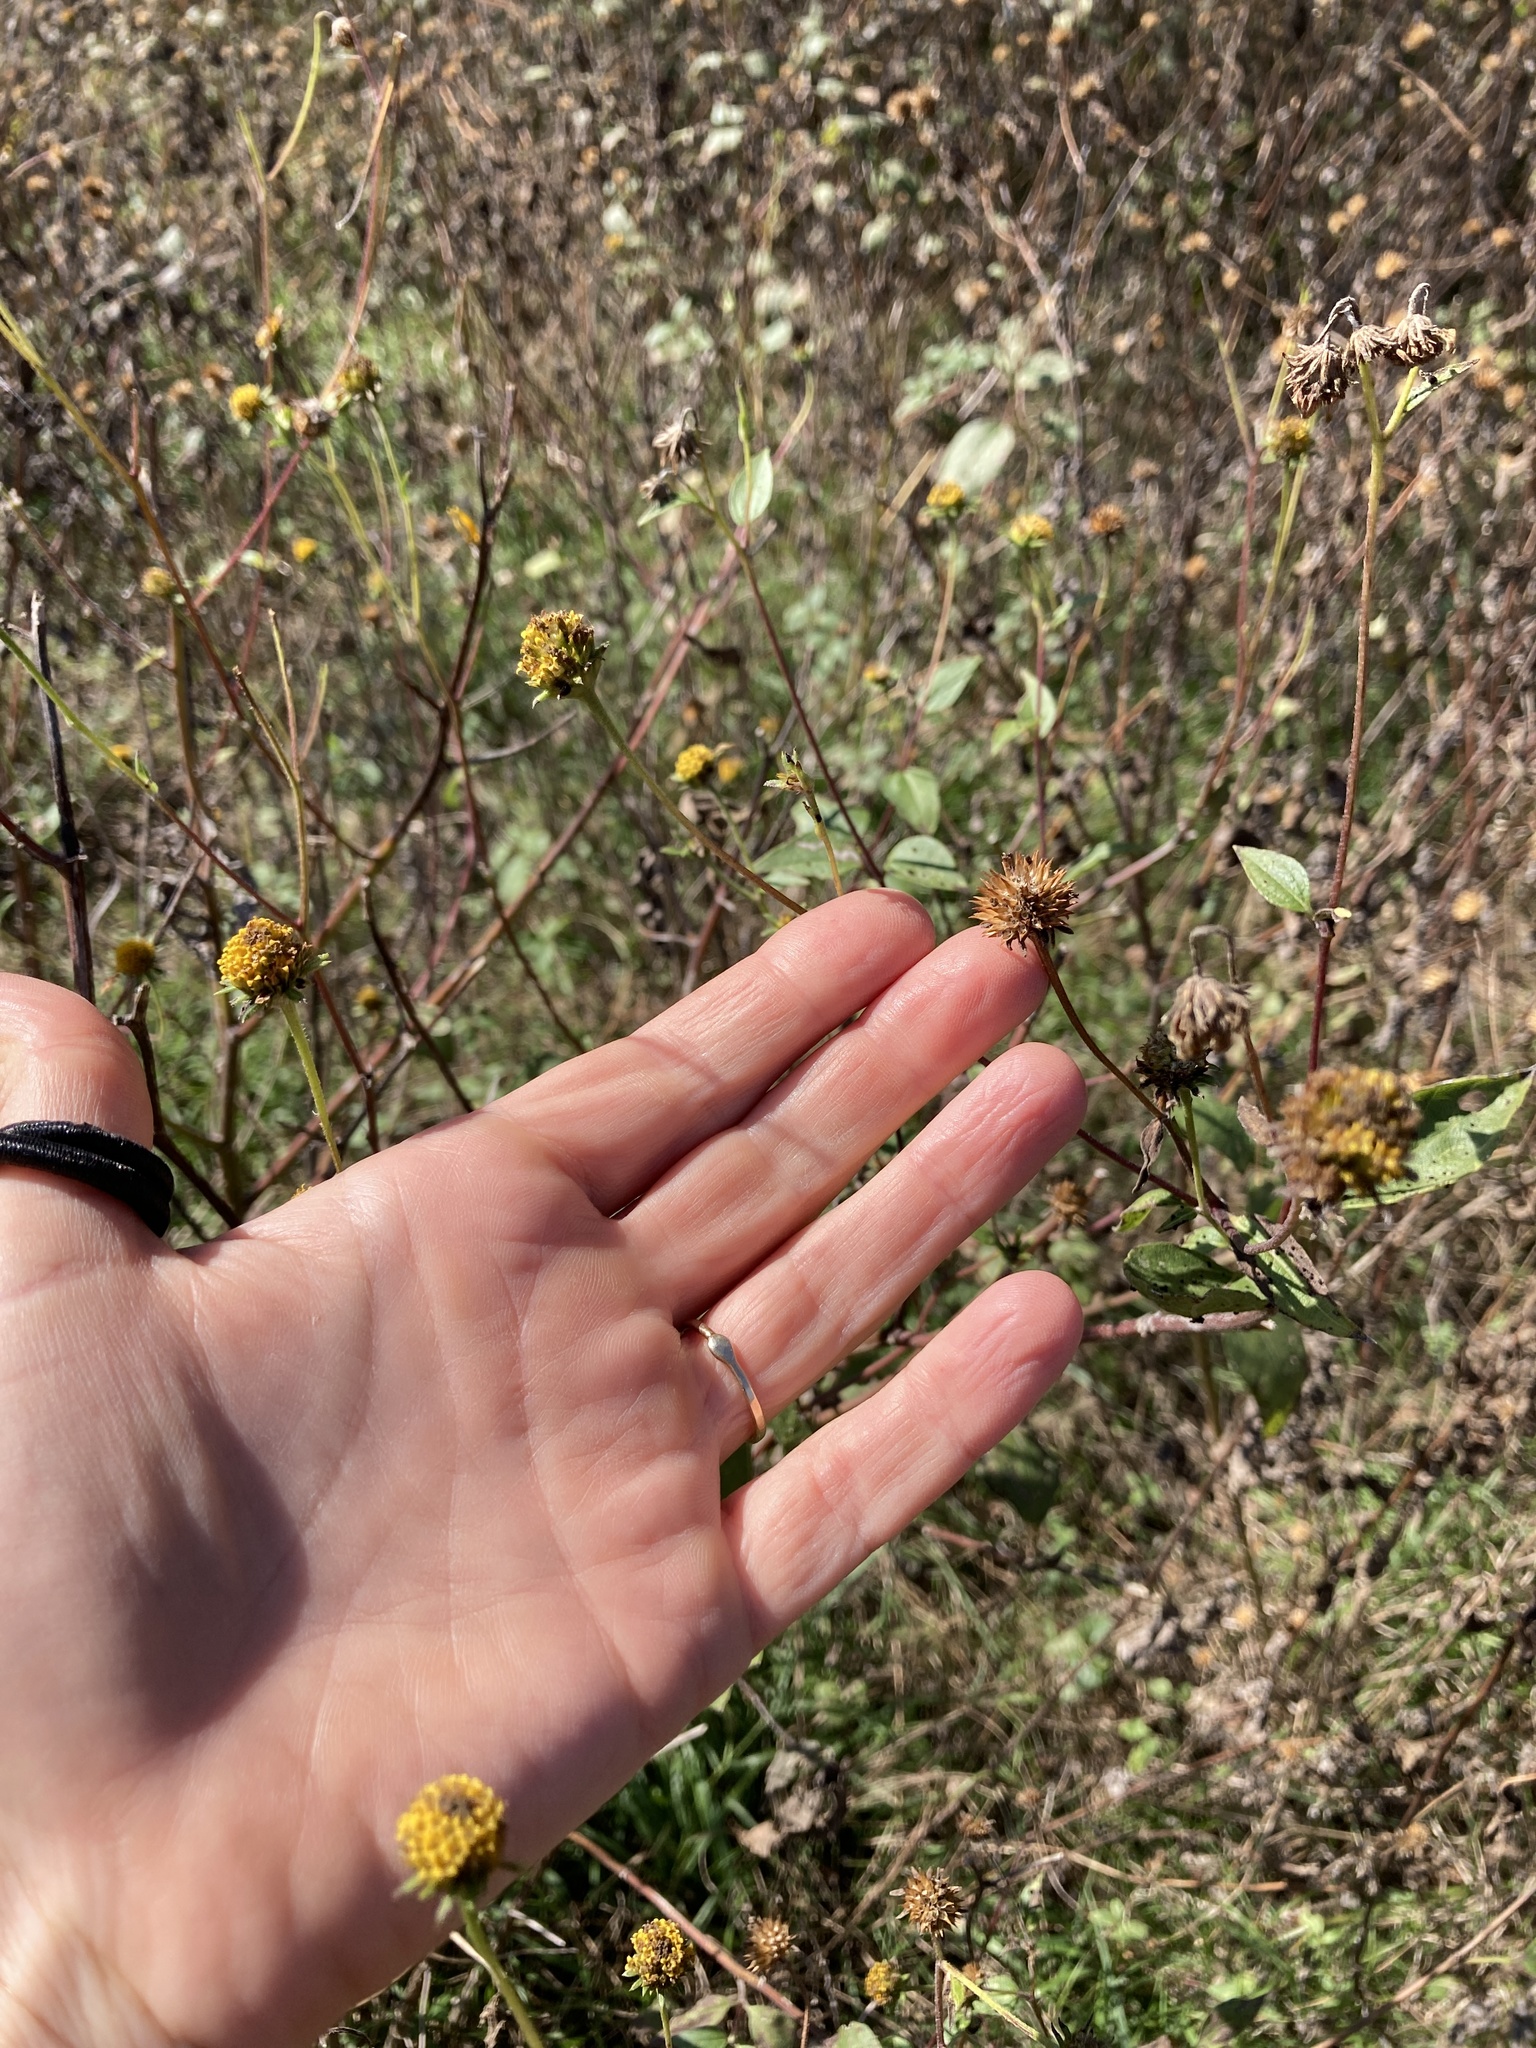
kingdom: Plantae
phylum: Tracheophyta
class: Magnoliopsida
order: Asterales
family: Asteraceae
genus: Viguiera
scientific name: Viguiera dentata
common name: Toothleaf
